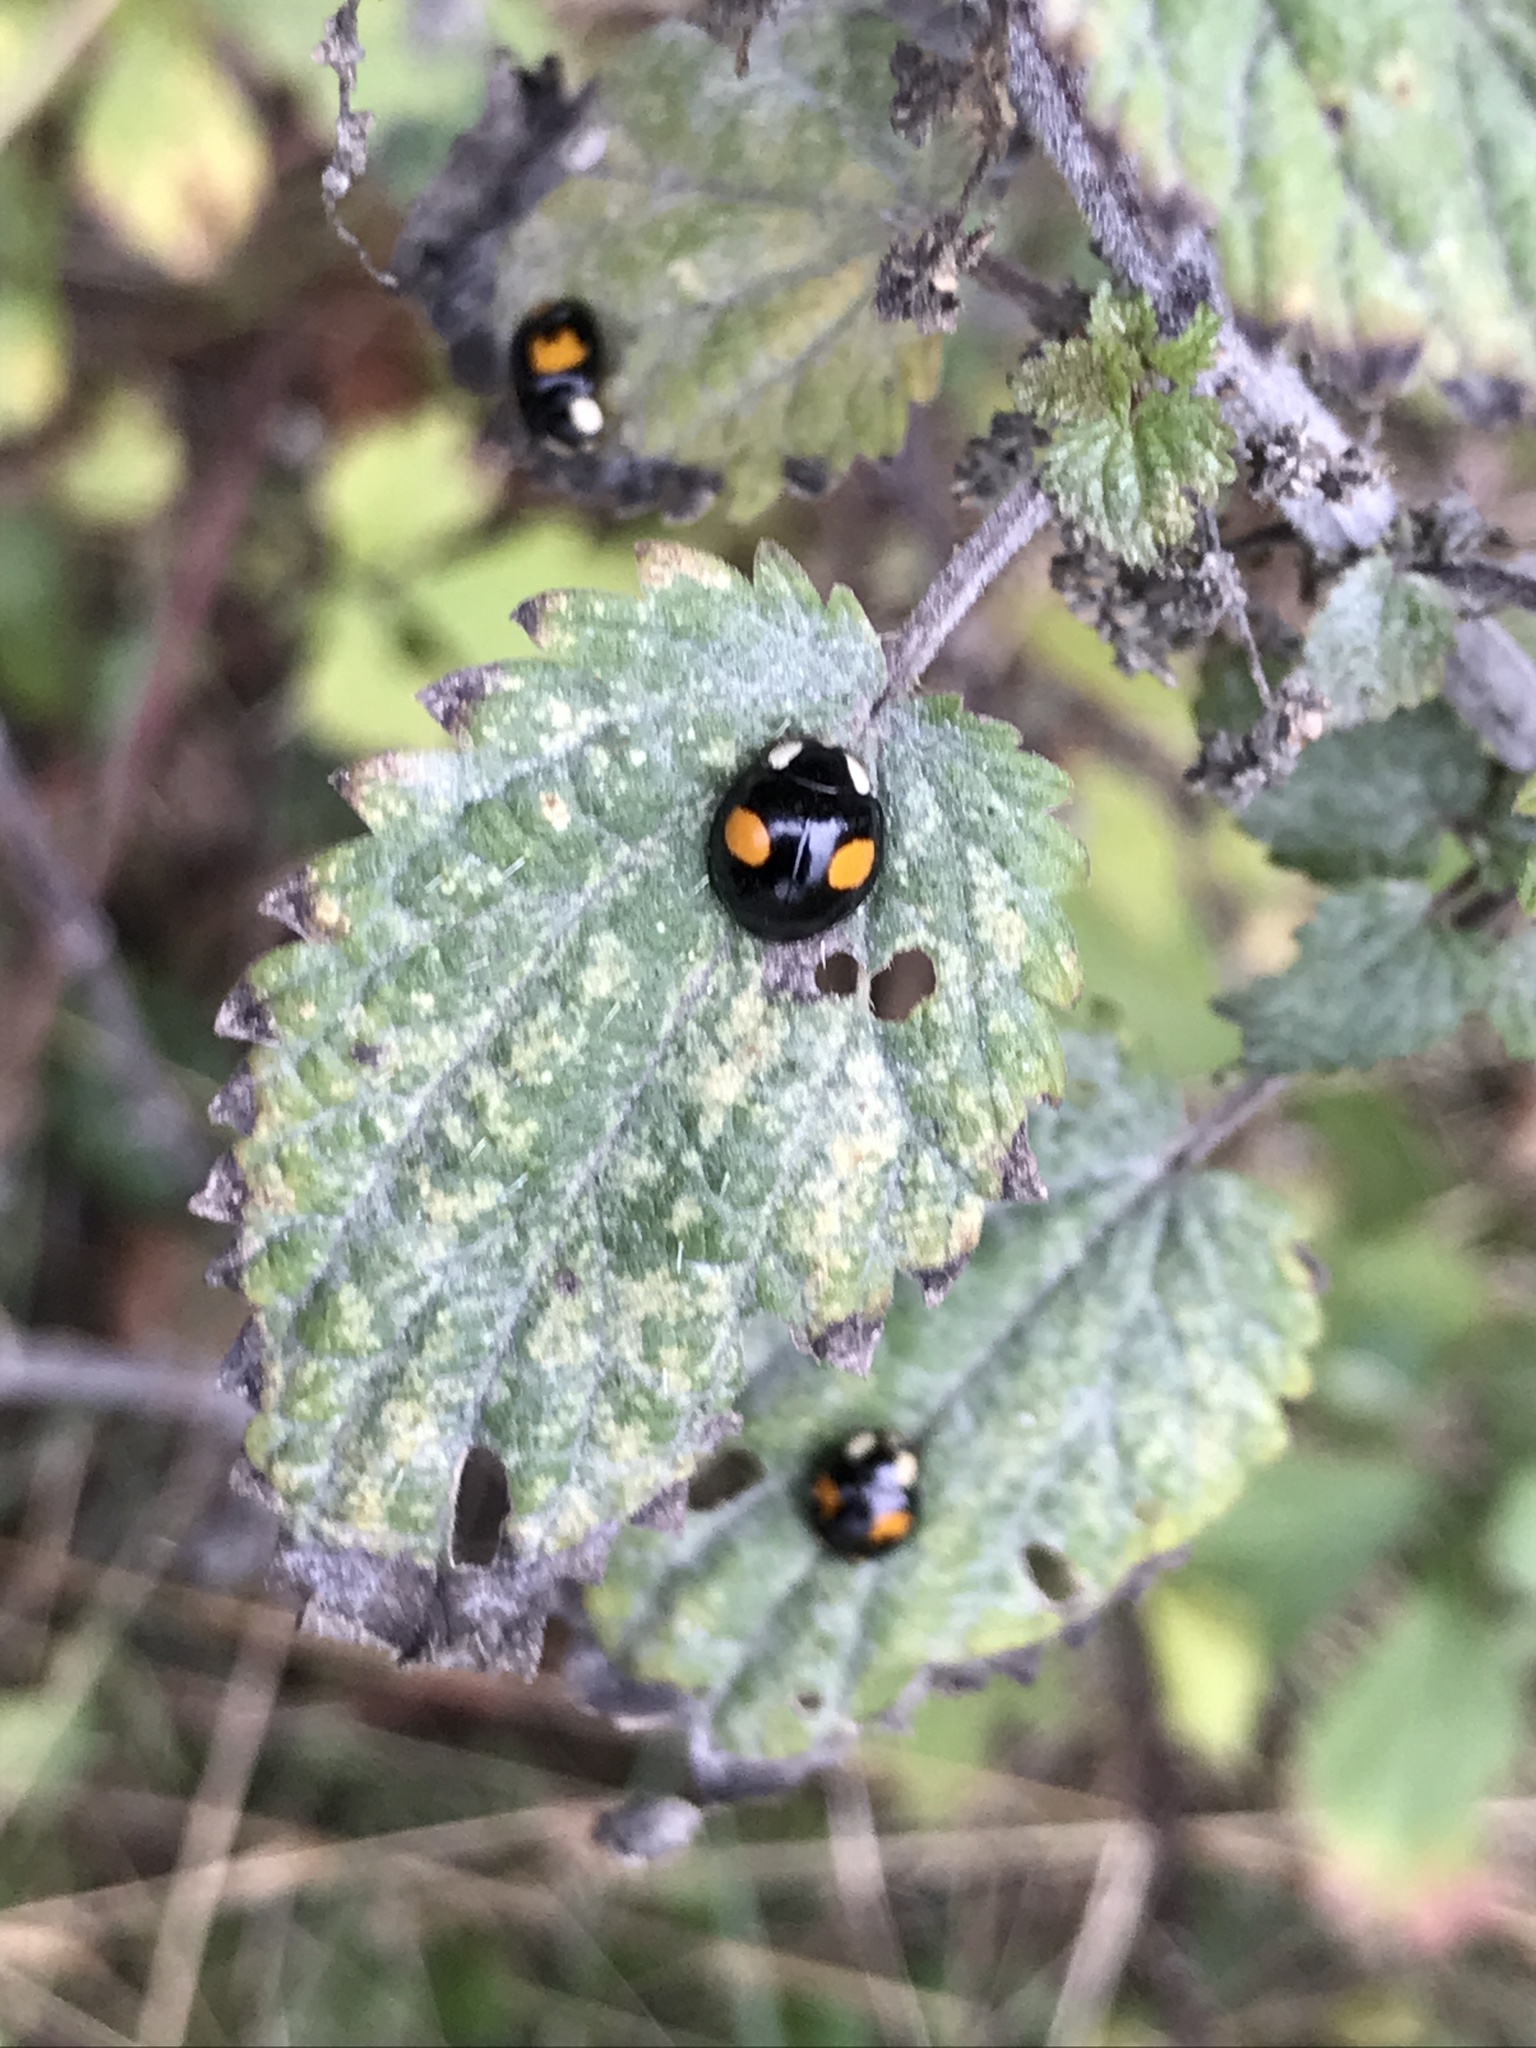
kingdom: Animalia
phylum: Arthropoda
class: Insecta
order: Coleoptera
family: Coccinellidae
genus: Harmonia
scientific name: Harmonia axyridis
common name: Harlequin ladybird
